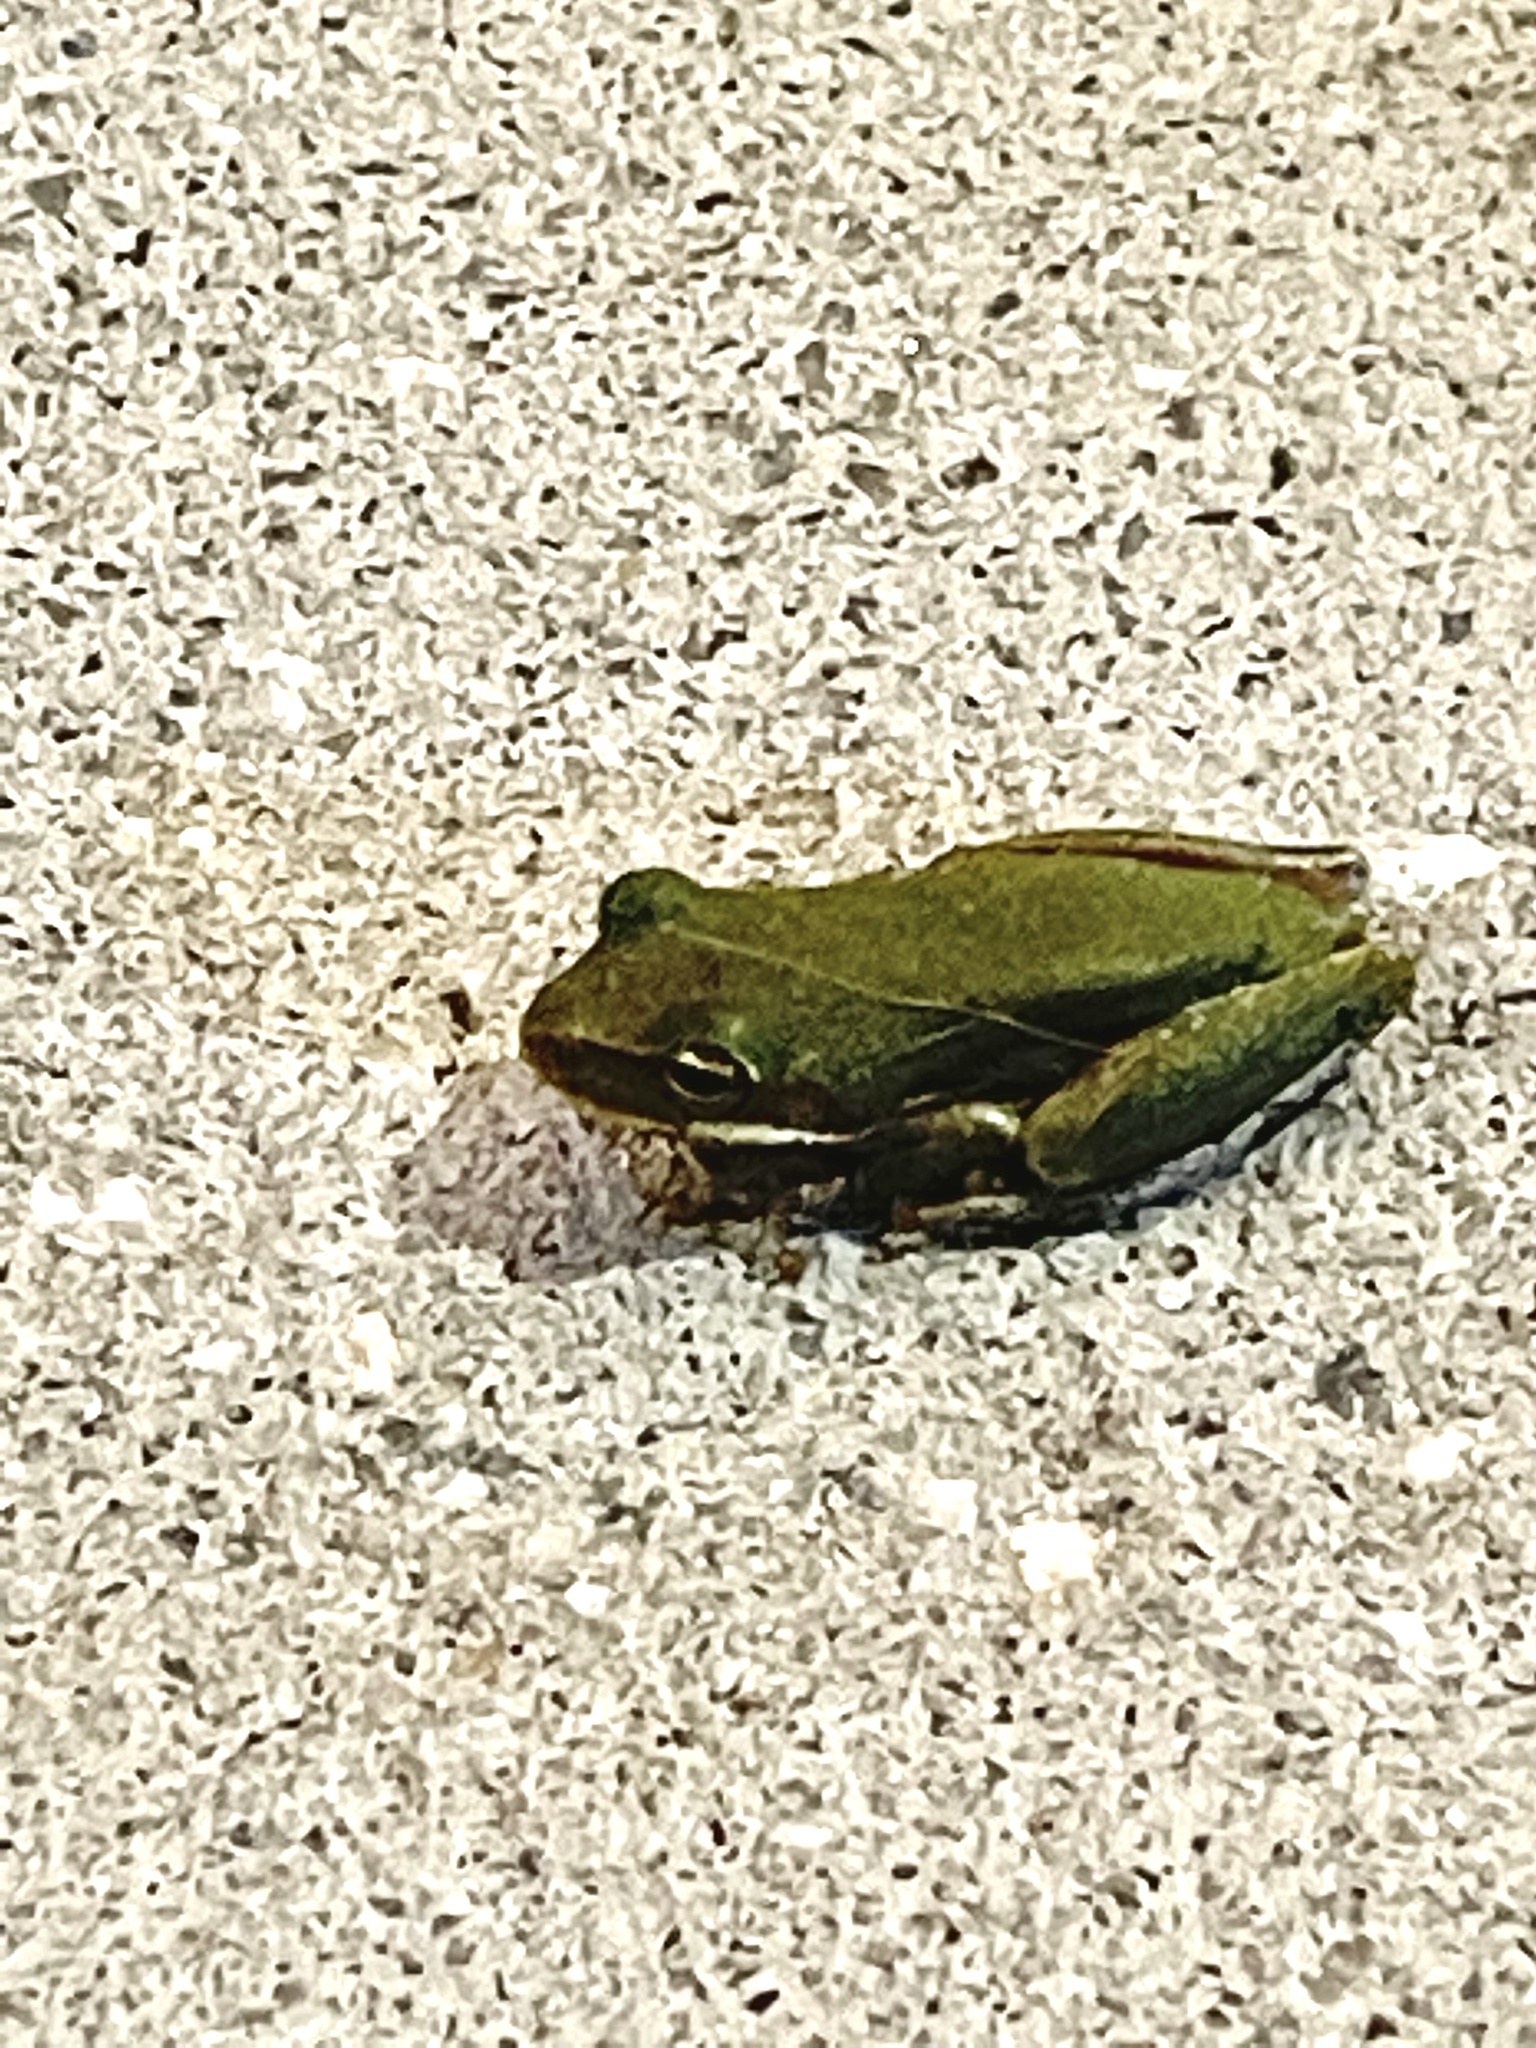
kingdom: Animalia
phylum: Chordata
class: Amphibia
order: Anura
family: Hylidae
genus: Dryophytes
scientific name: Dryophytes cinereus
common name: Green treefrog
